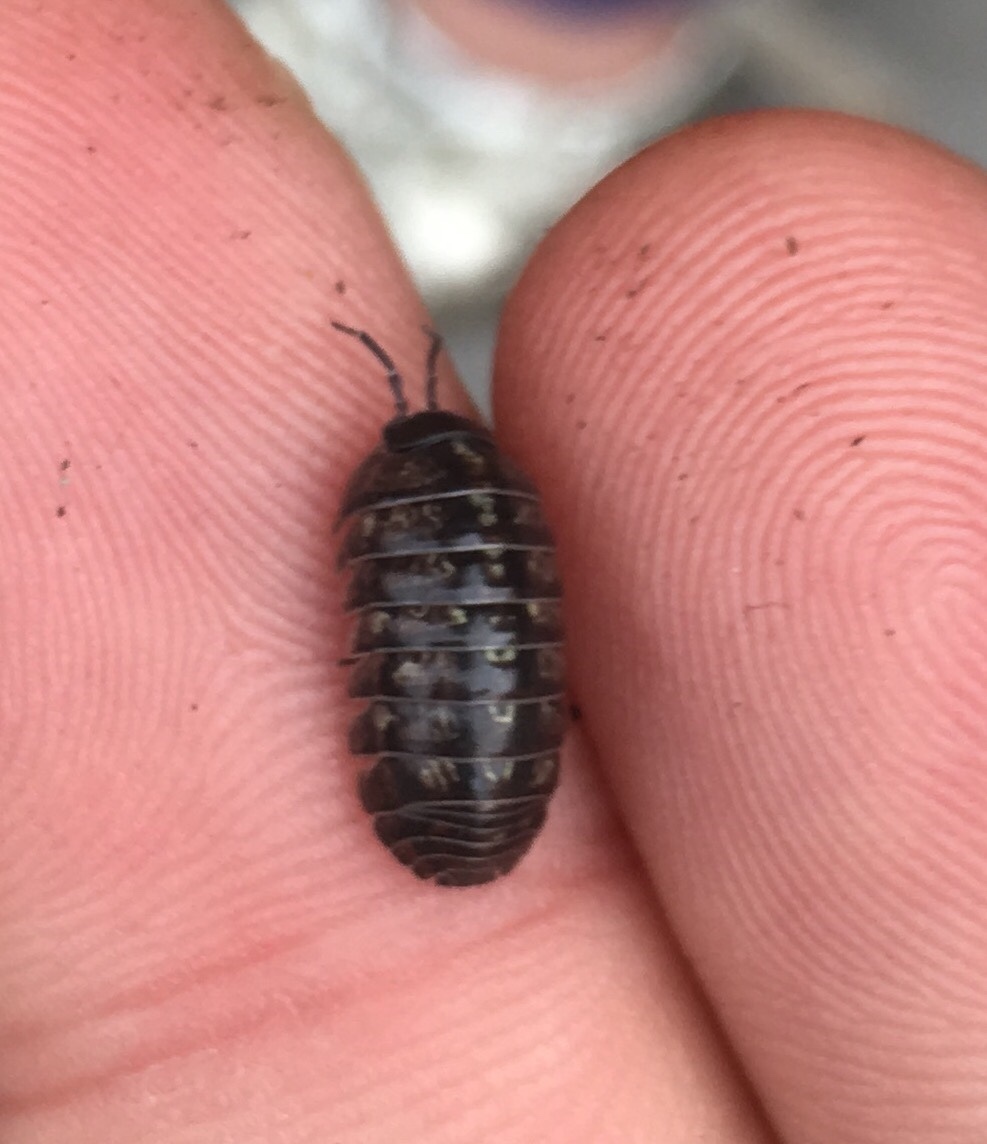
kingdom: Animalia
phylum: Arthropoda
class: Malacostraca
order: Isopoda
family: Armadillidiidae
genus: Armadillidium
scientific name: Armadillidium vulgare
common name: Common pill woodlouse
